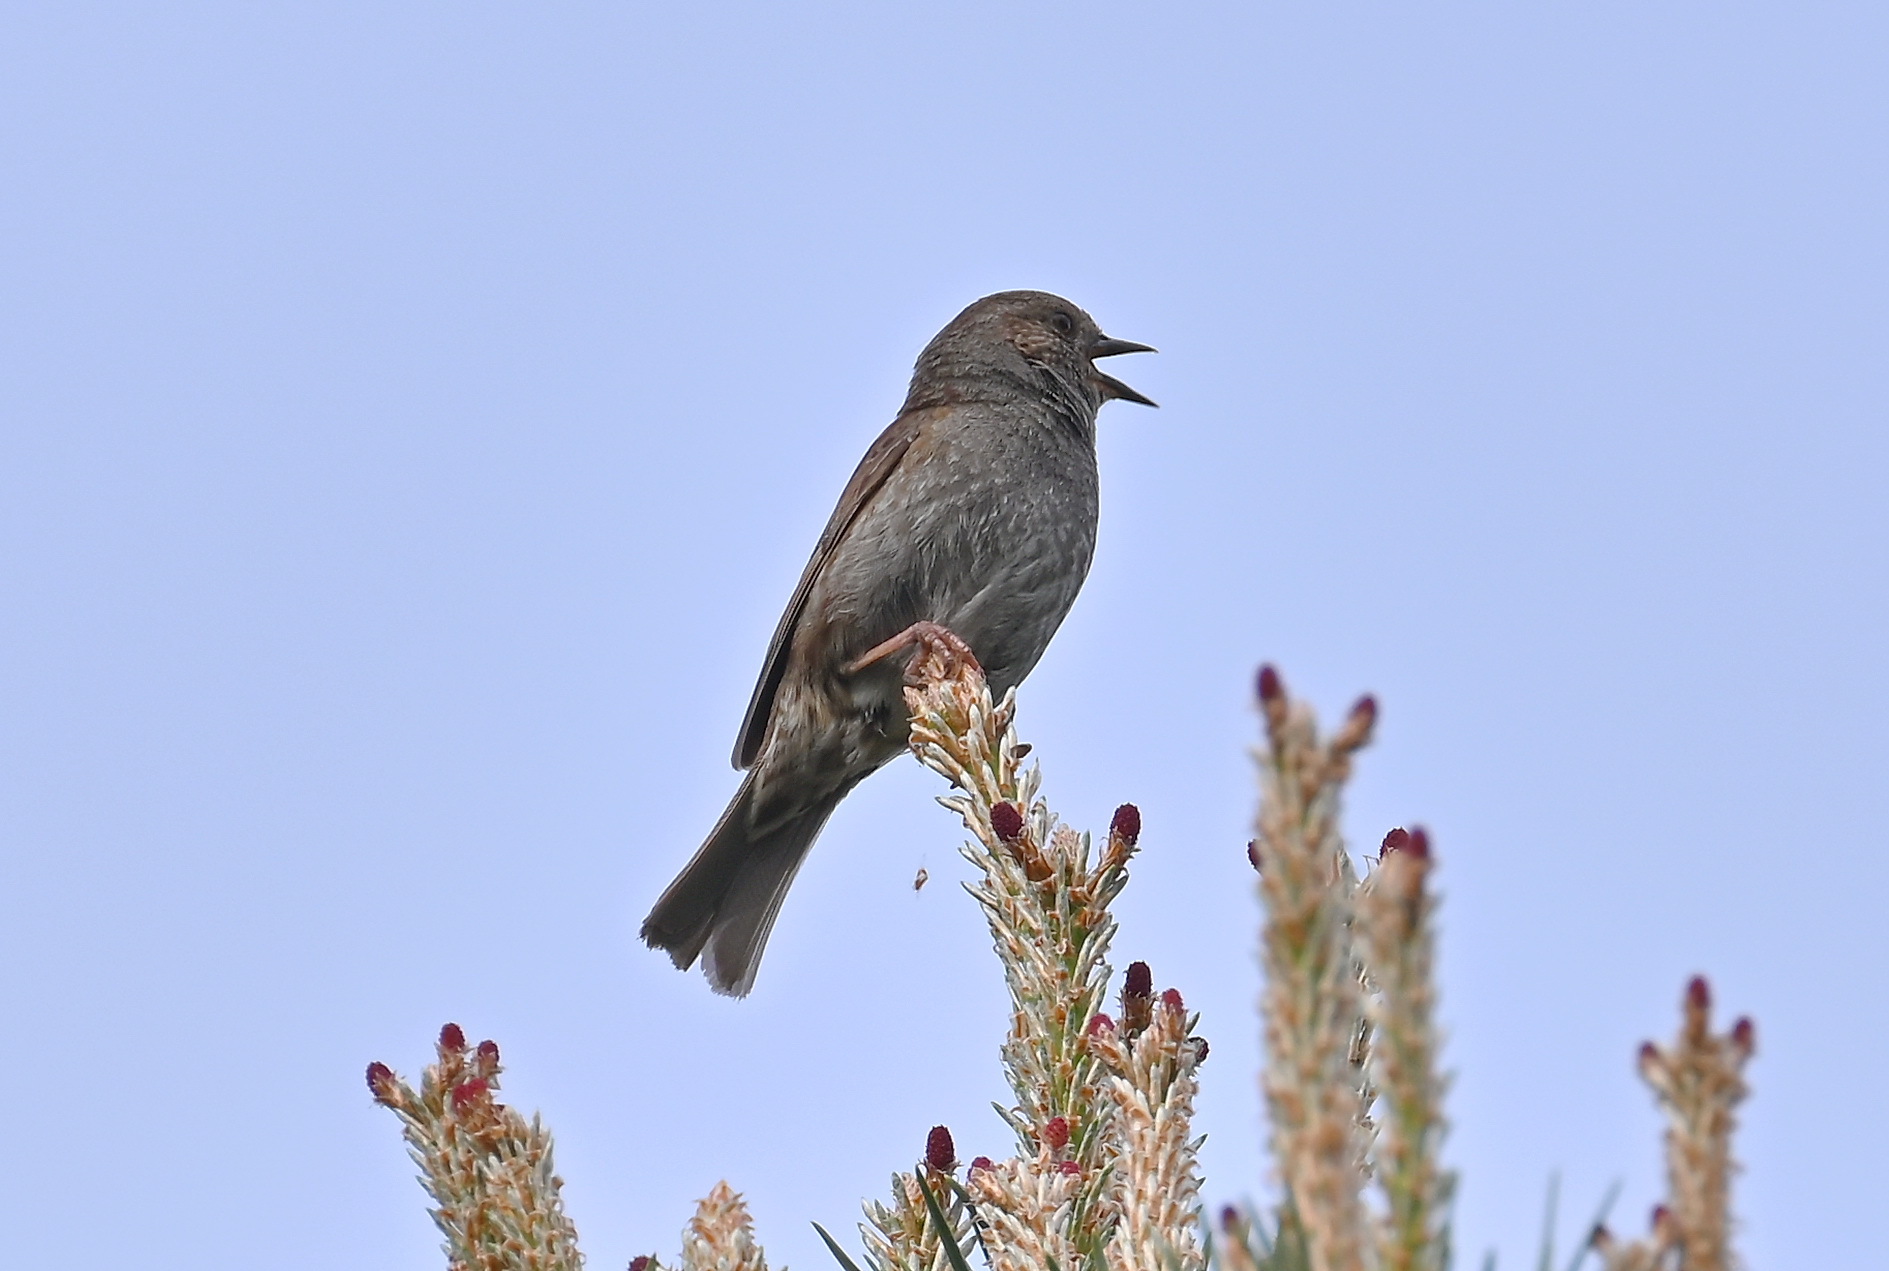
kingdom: Animalia
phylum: Chordata
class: Aves
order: Passeriformes
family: Prunellidae
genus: Prunella
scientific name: Prunella modularis
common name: Dunnock
